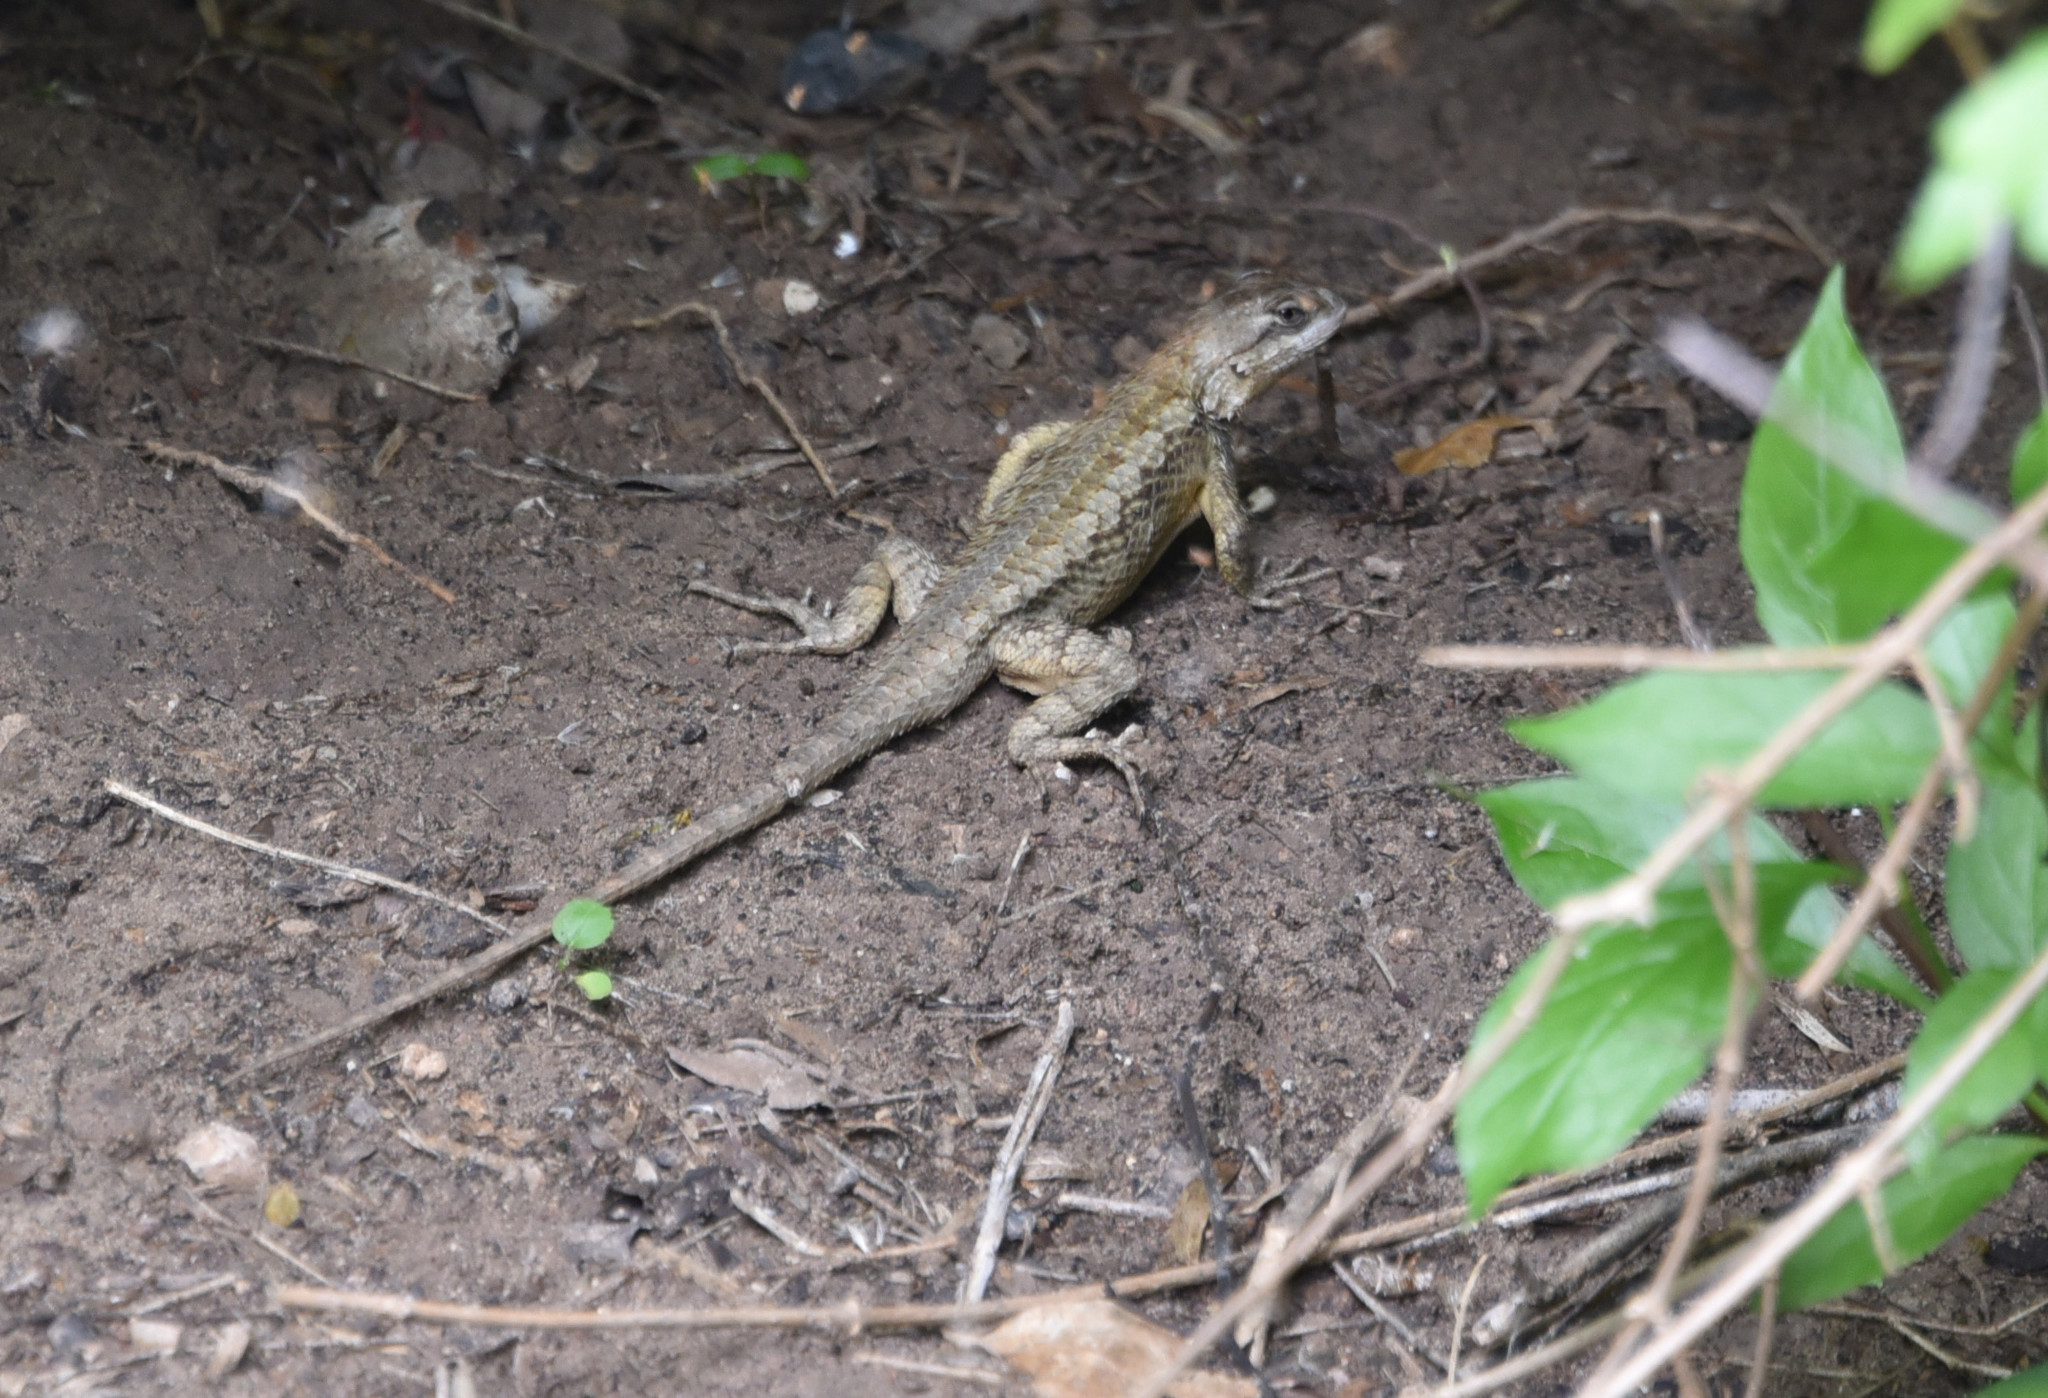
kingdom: Animalia
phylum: Chordata
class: Squamata
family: Phrynosomatidae
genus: Sceloporus
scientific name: Sceloporus olivaceus
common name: Texas spiny lizard
